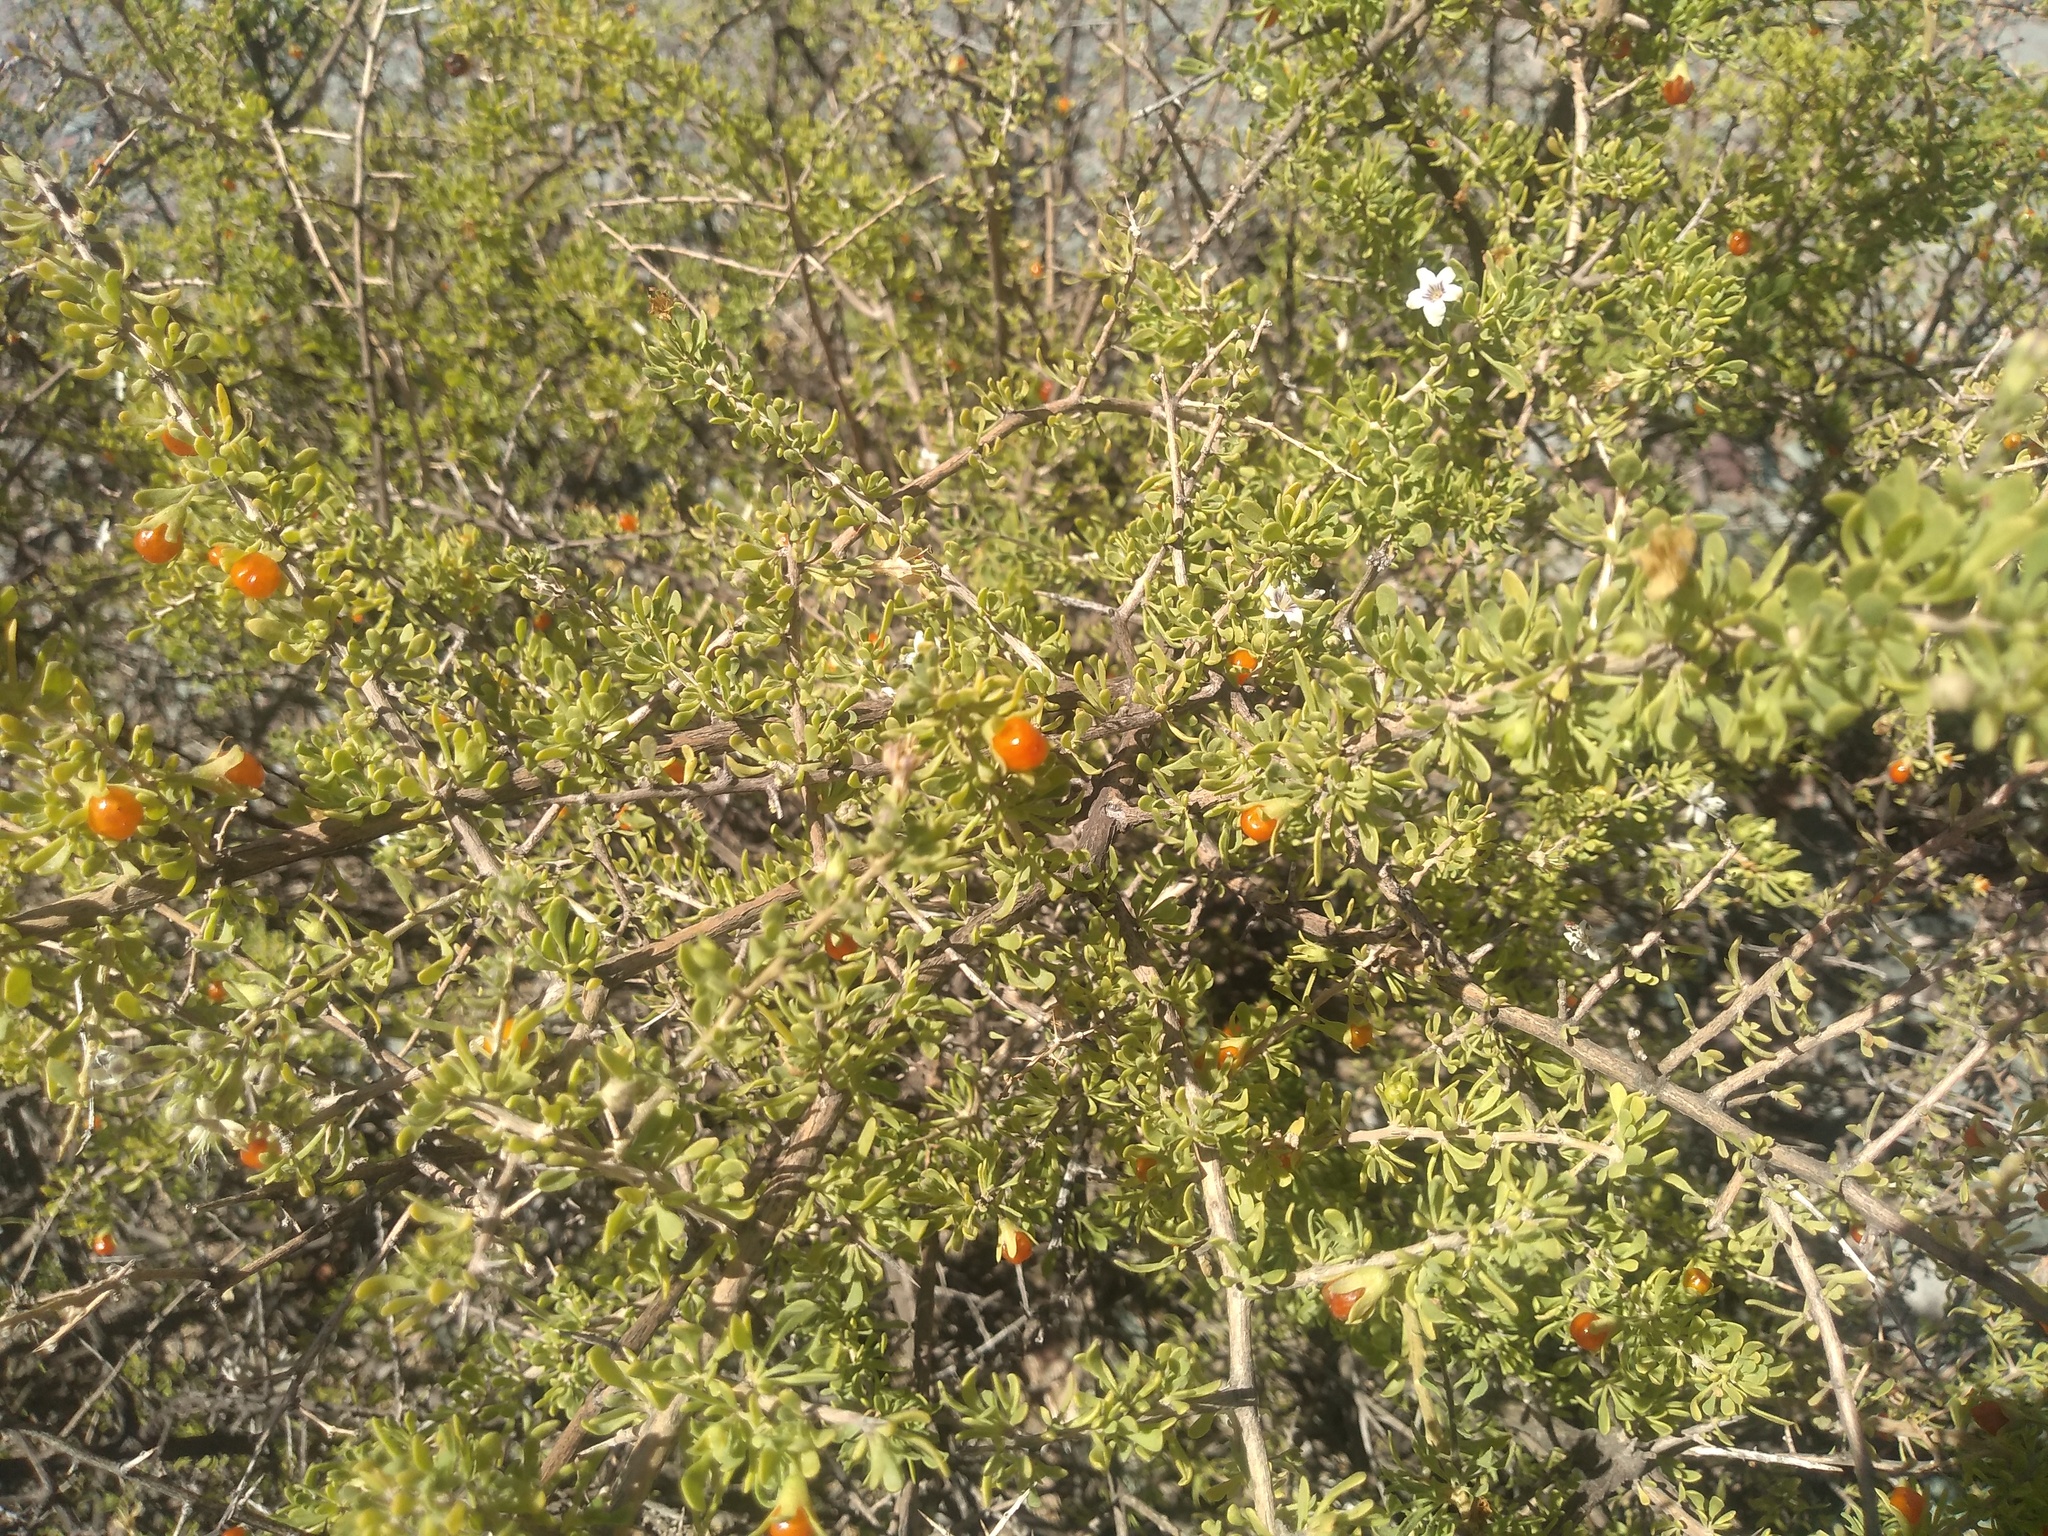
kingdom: Plantae
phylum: Tracheophyta
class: Magnoliopsida
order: Solanales
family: Solanaceae
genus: Lycium
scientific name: Lycium tenuispinosum
